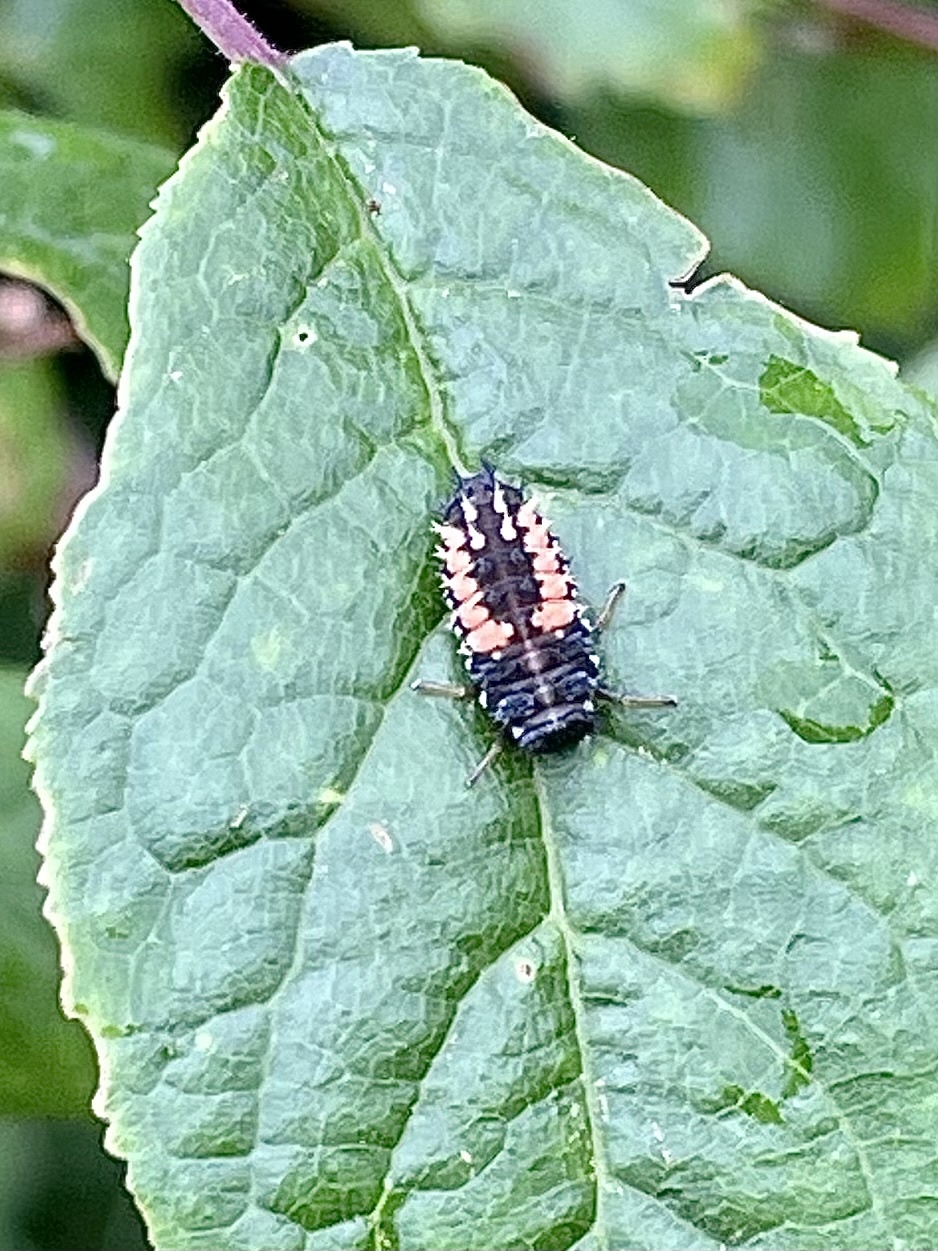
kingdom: Animalia
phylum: Arthropoda
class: Insecta
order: Coleoptera
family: Coccinellidae
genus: Harmonia
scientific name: Harmonia axyridis
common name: Harlequin ladybird
